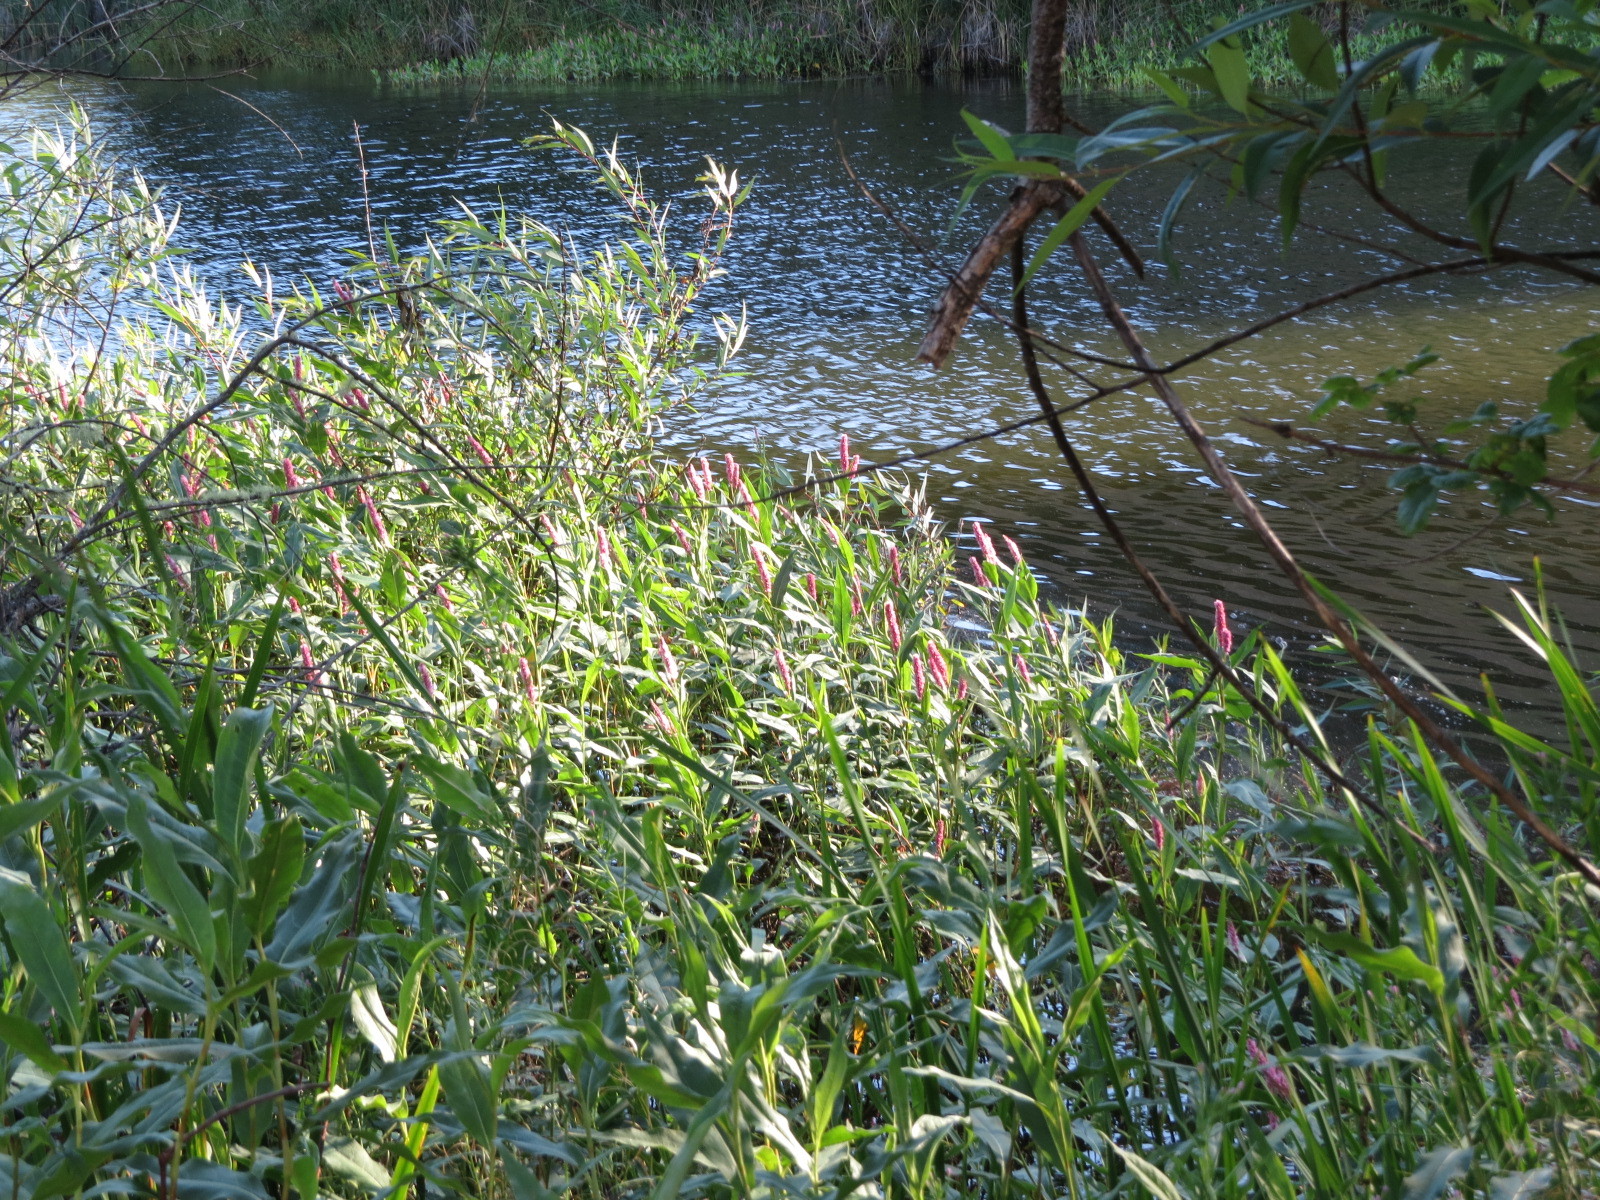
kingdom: Plantae
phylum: Tracheophyta
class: Magnoliopsida
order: Caryophyllales
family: Polygonaceae
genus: Persicaria
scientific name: Persicaria amphibia
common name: Amphibious bistort
